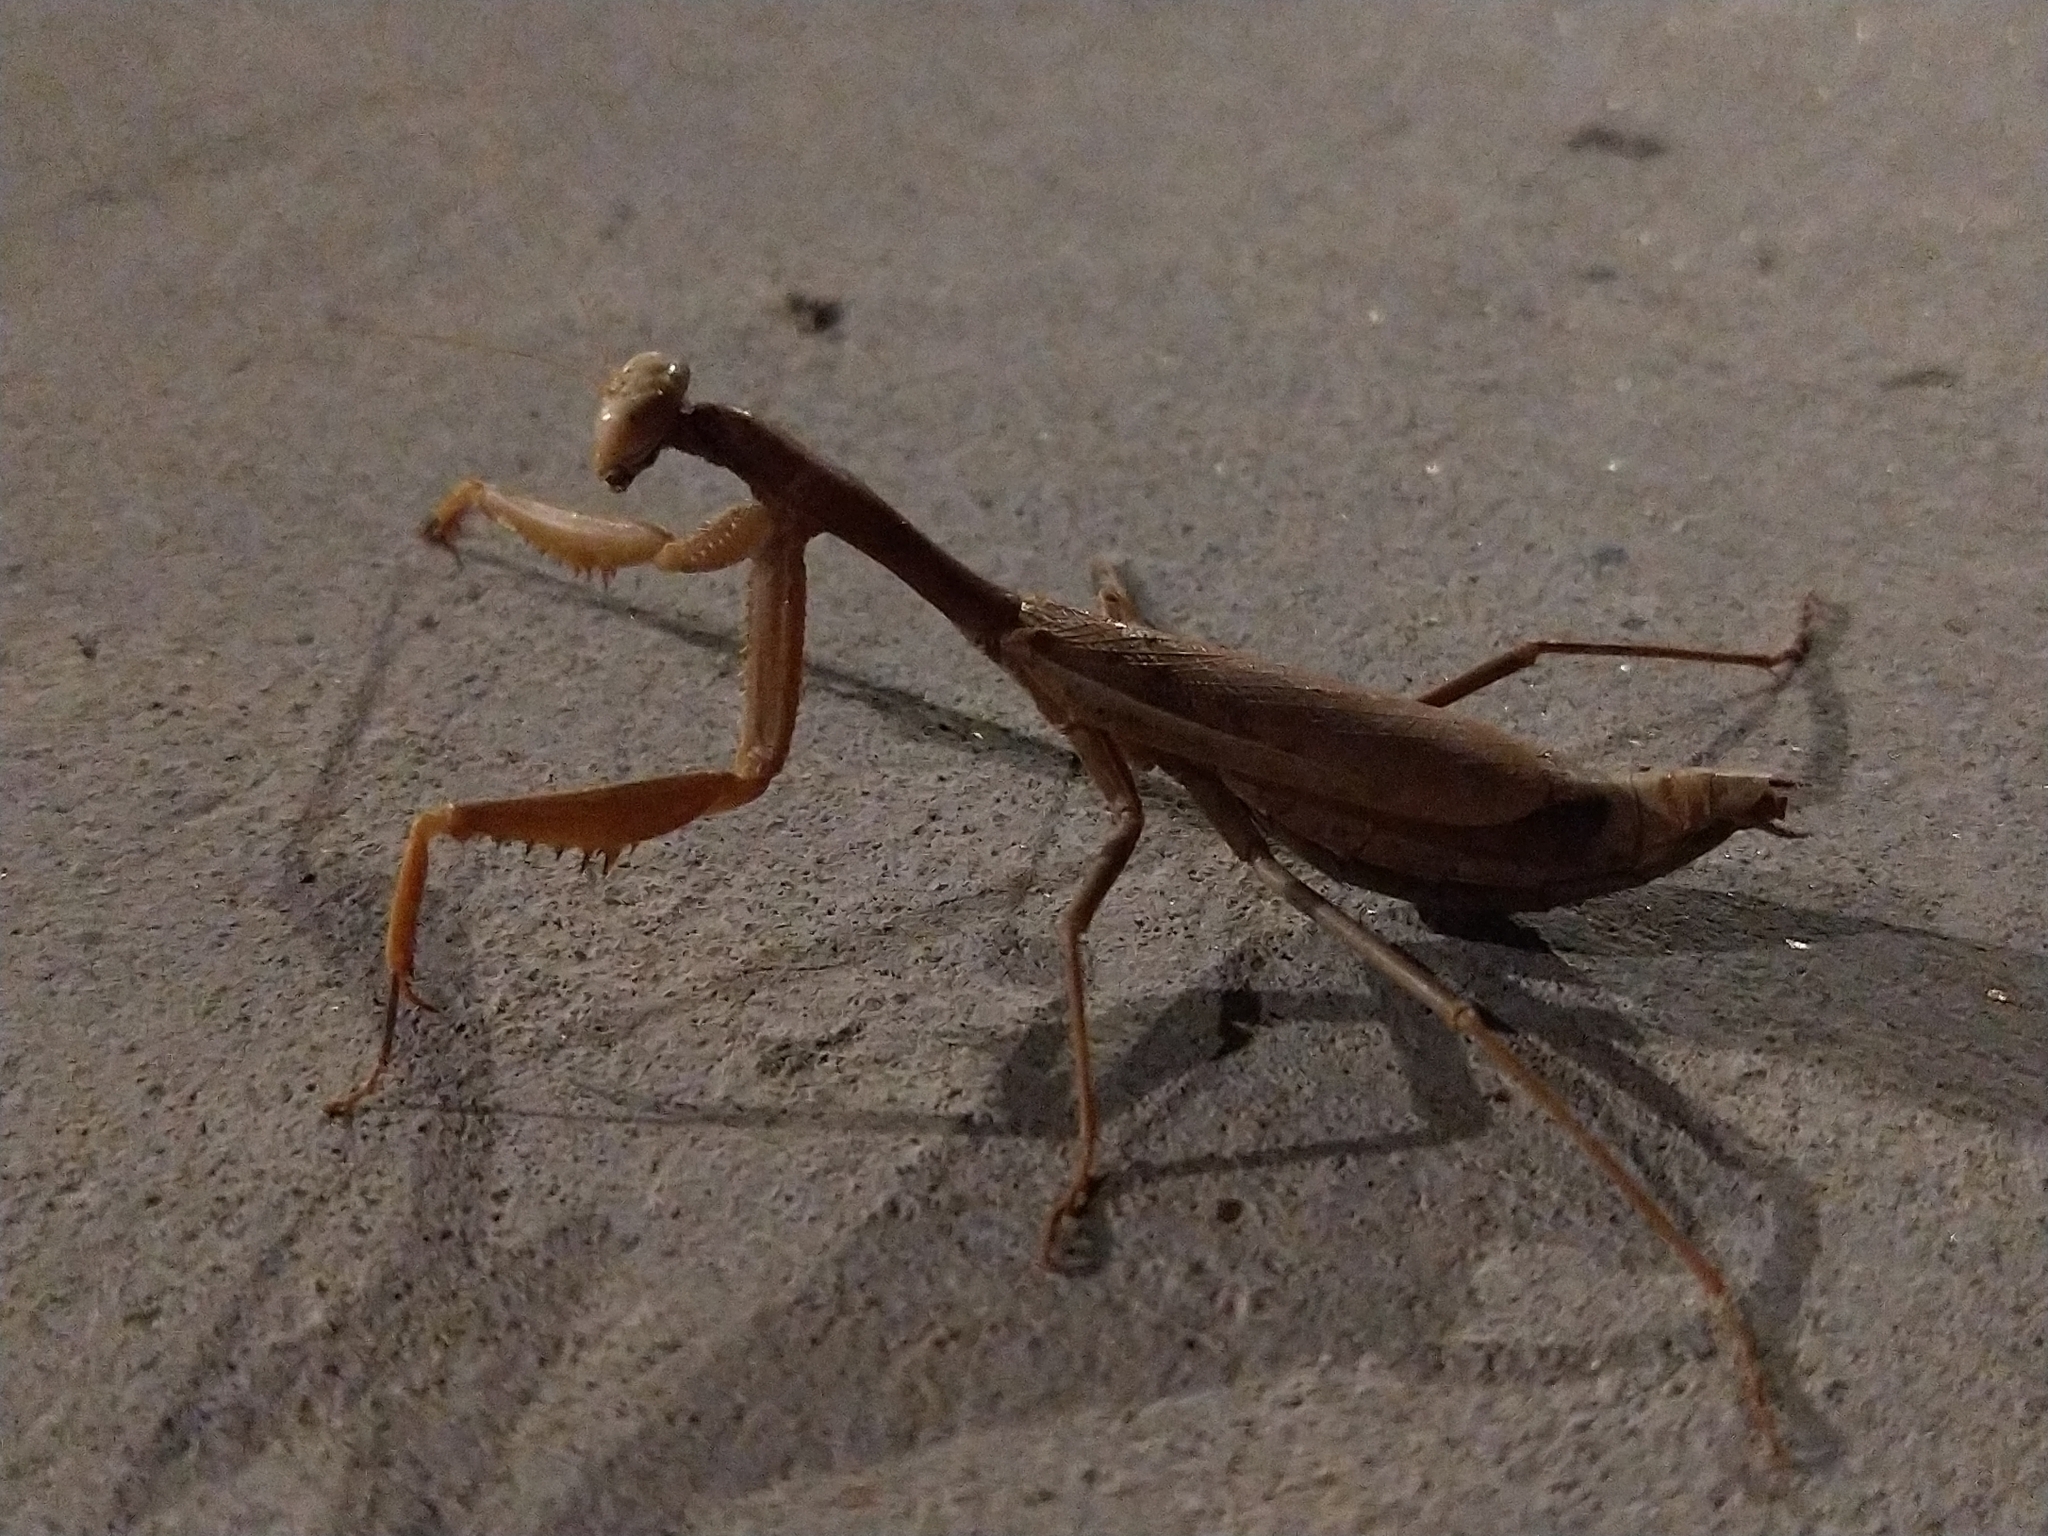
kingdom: Animalia
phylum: Arthropoda
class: Insecta
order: Mantodea
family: Eremiaphilidae
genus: Iris
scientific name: Iris oratoria
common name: Mediterranean mantis
